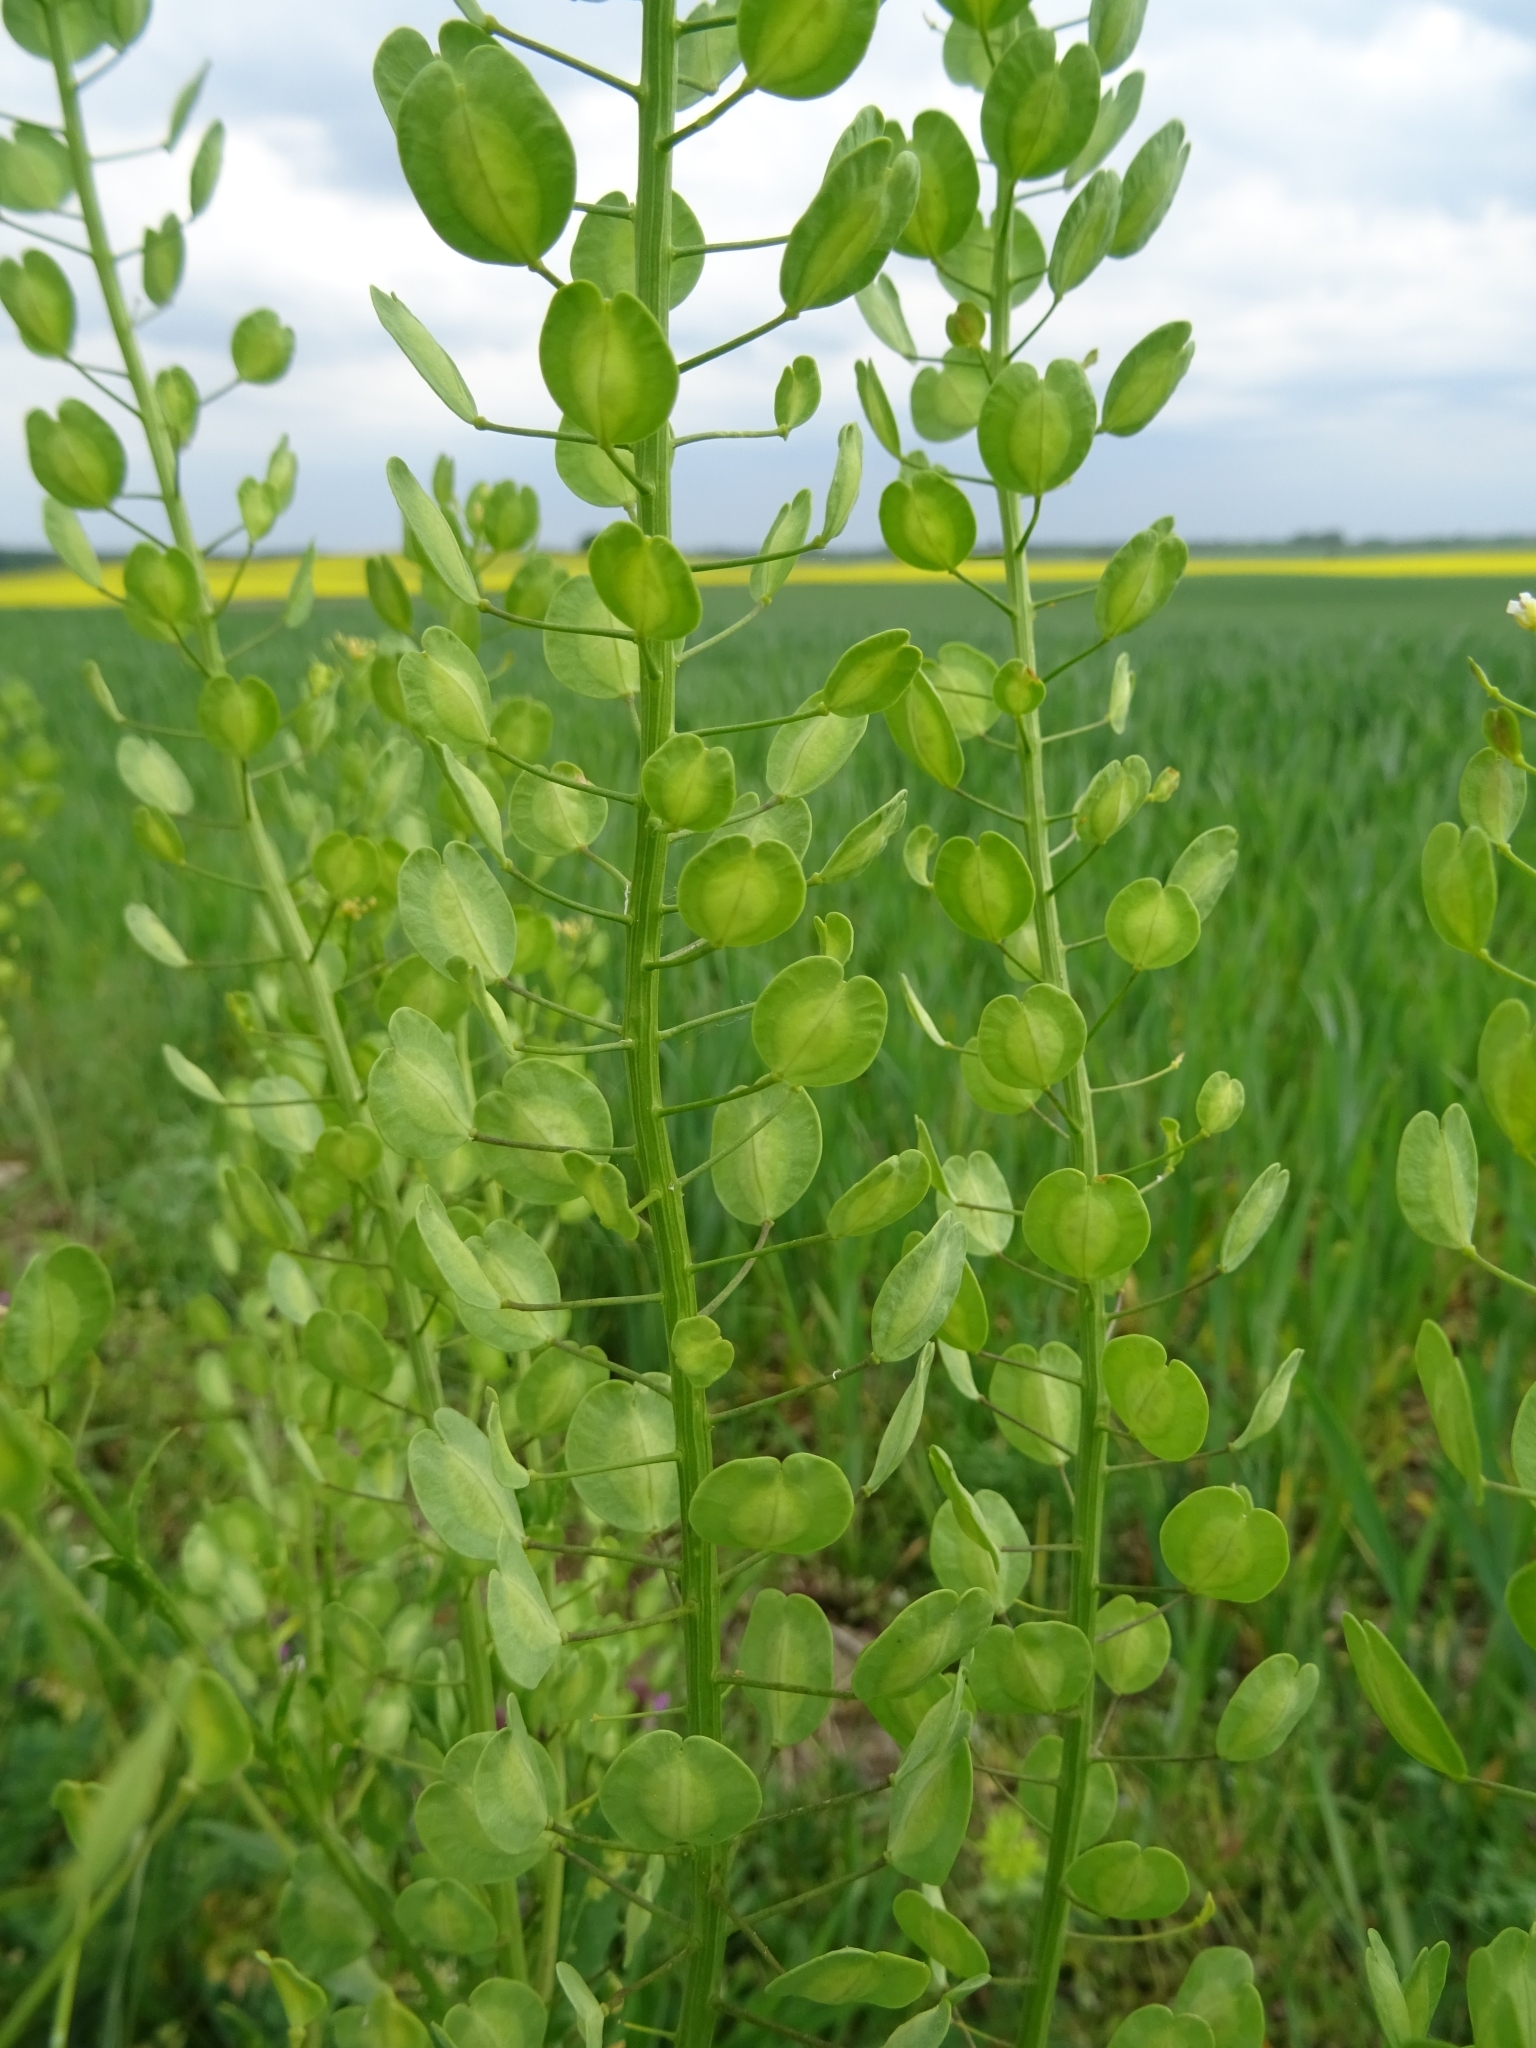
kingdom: Plantae
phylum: Tracheophyta
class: Magnoliopsida
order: Brassicales
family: Brassicaceae
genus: Thlaspi
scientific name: Thlaspi arvense
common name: Field pennycress
